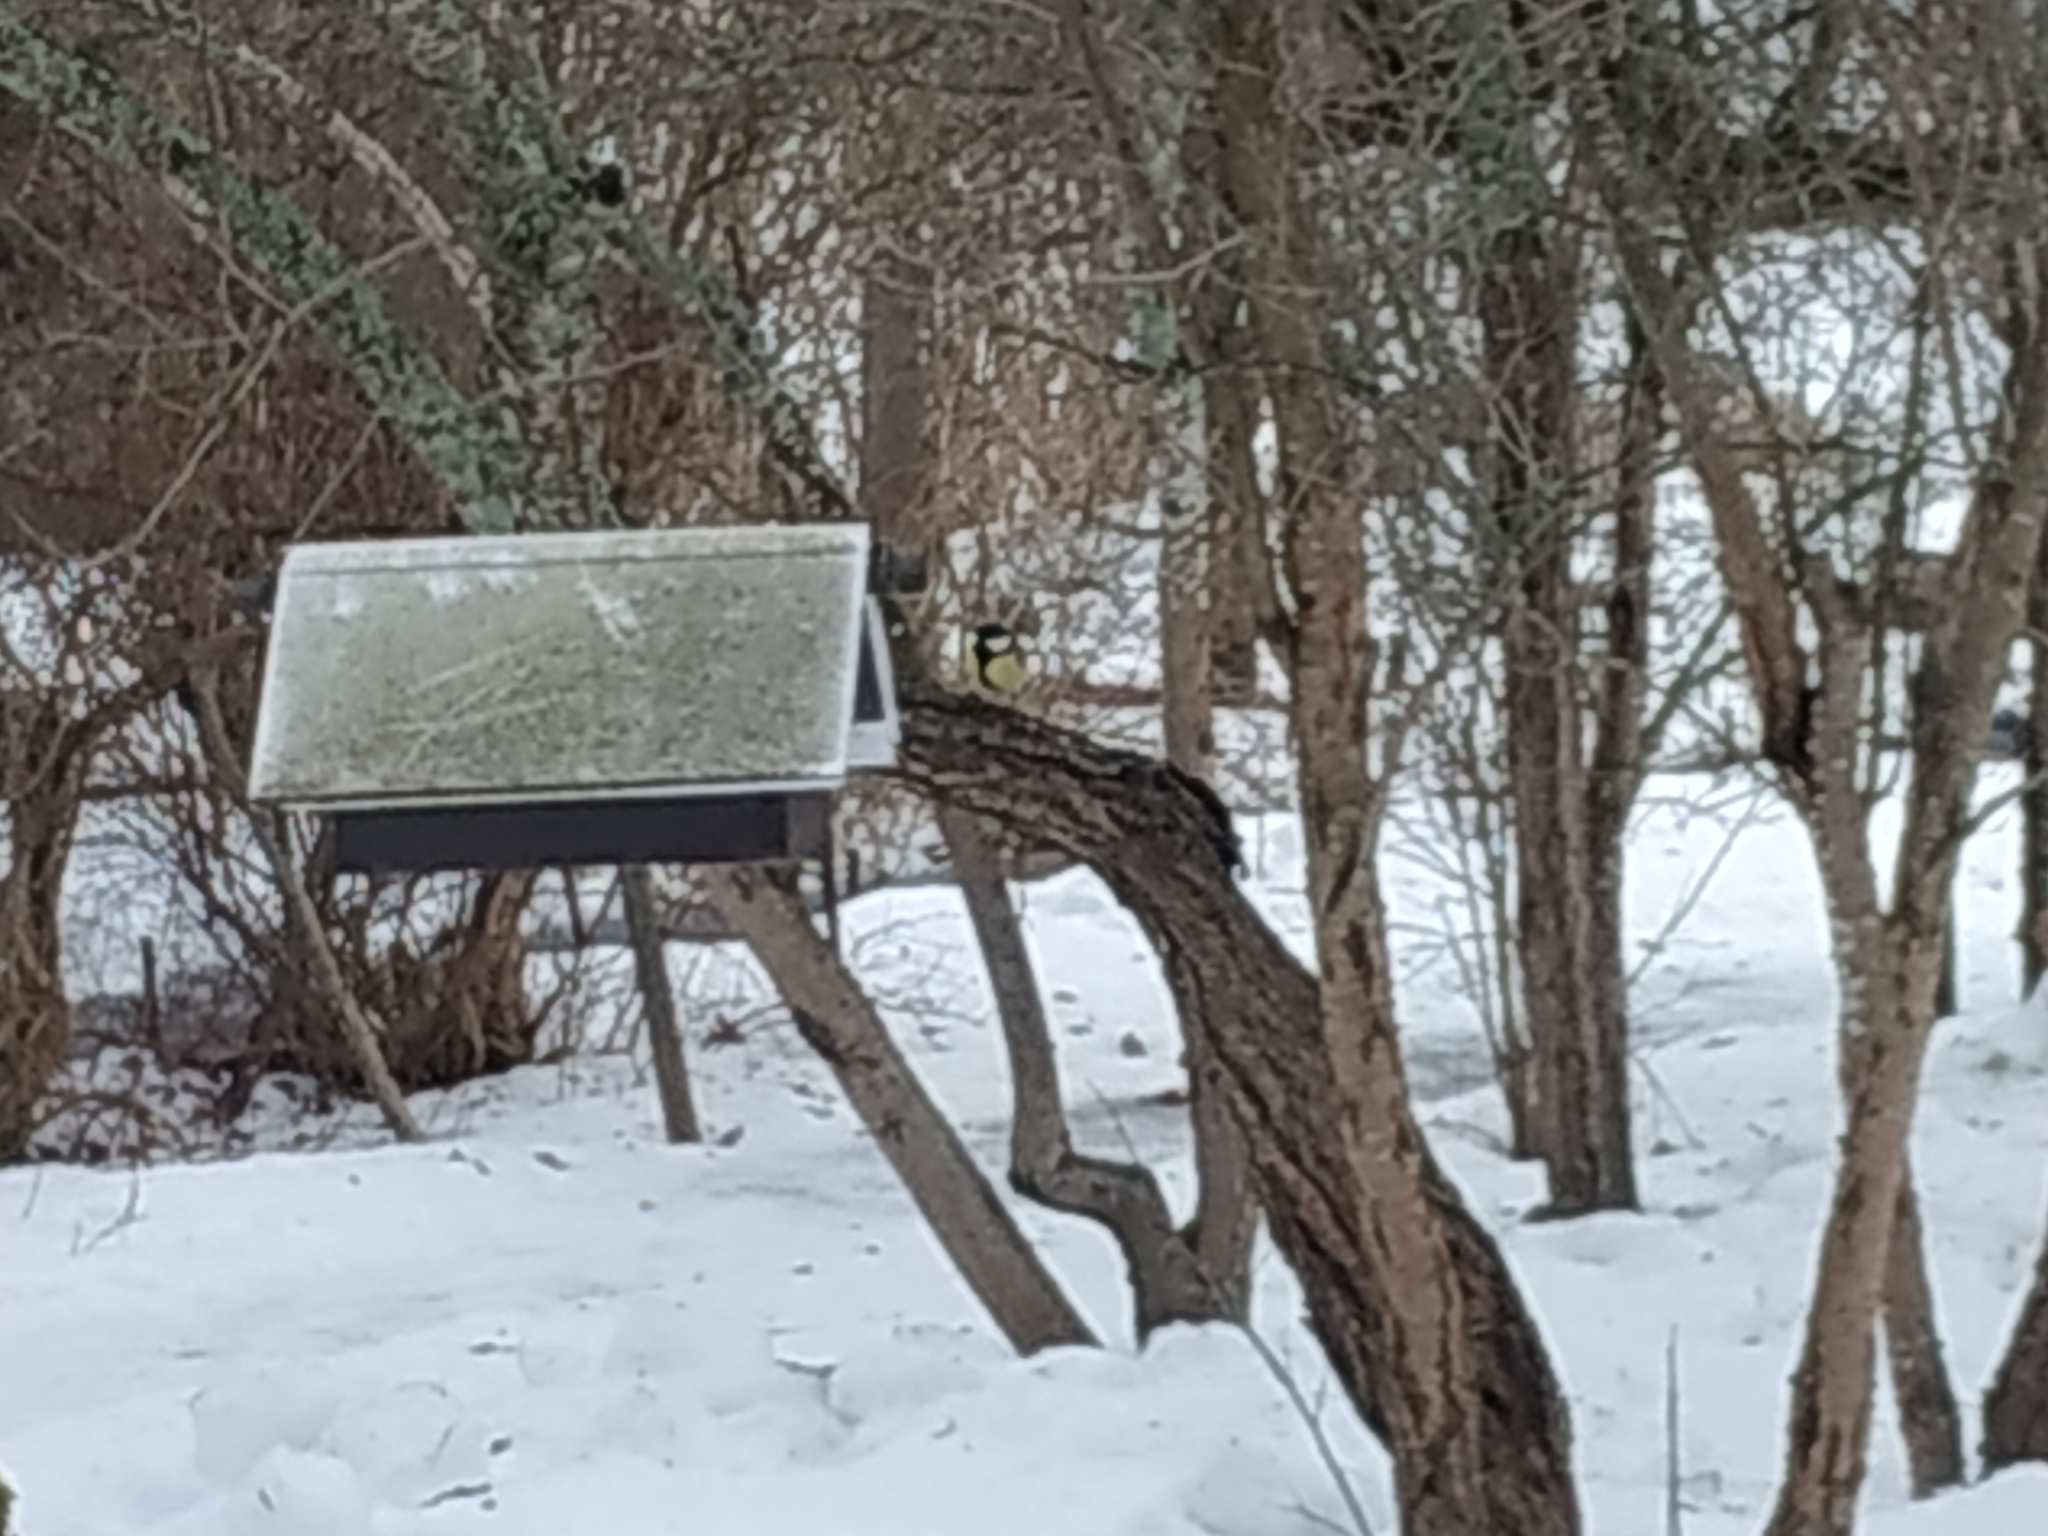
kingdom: Animalia
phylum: Chordata
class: Aves
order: Passeriformes
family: Paridae
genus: Parus
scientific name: Parus major
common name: Great tit
